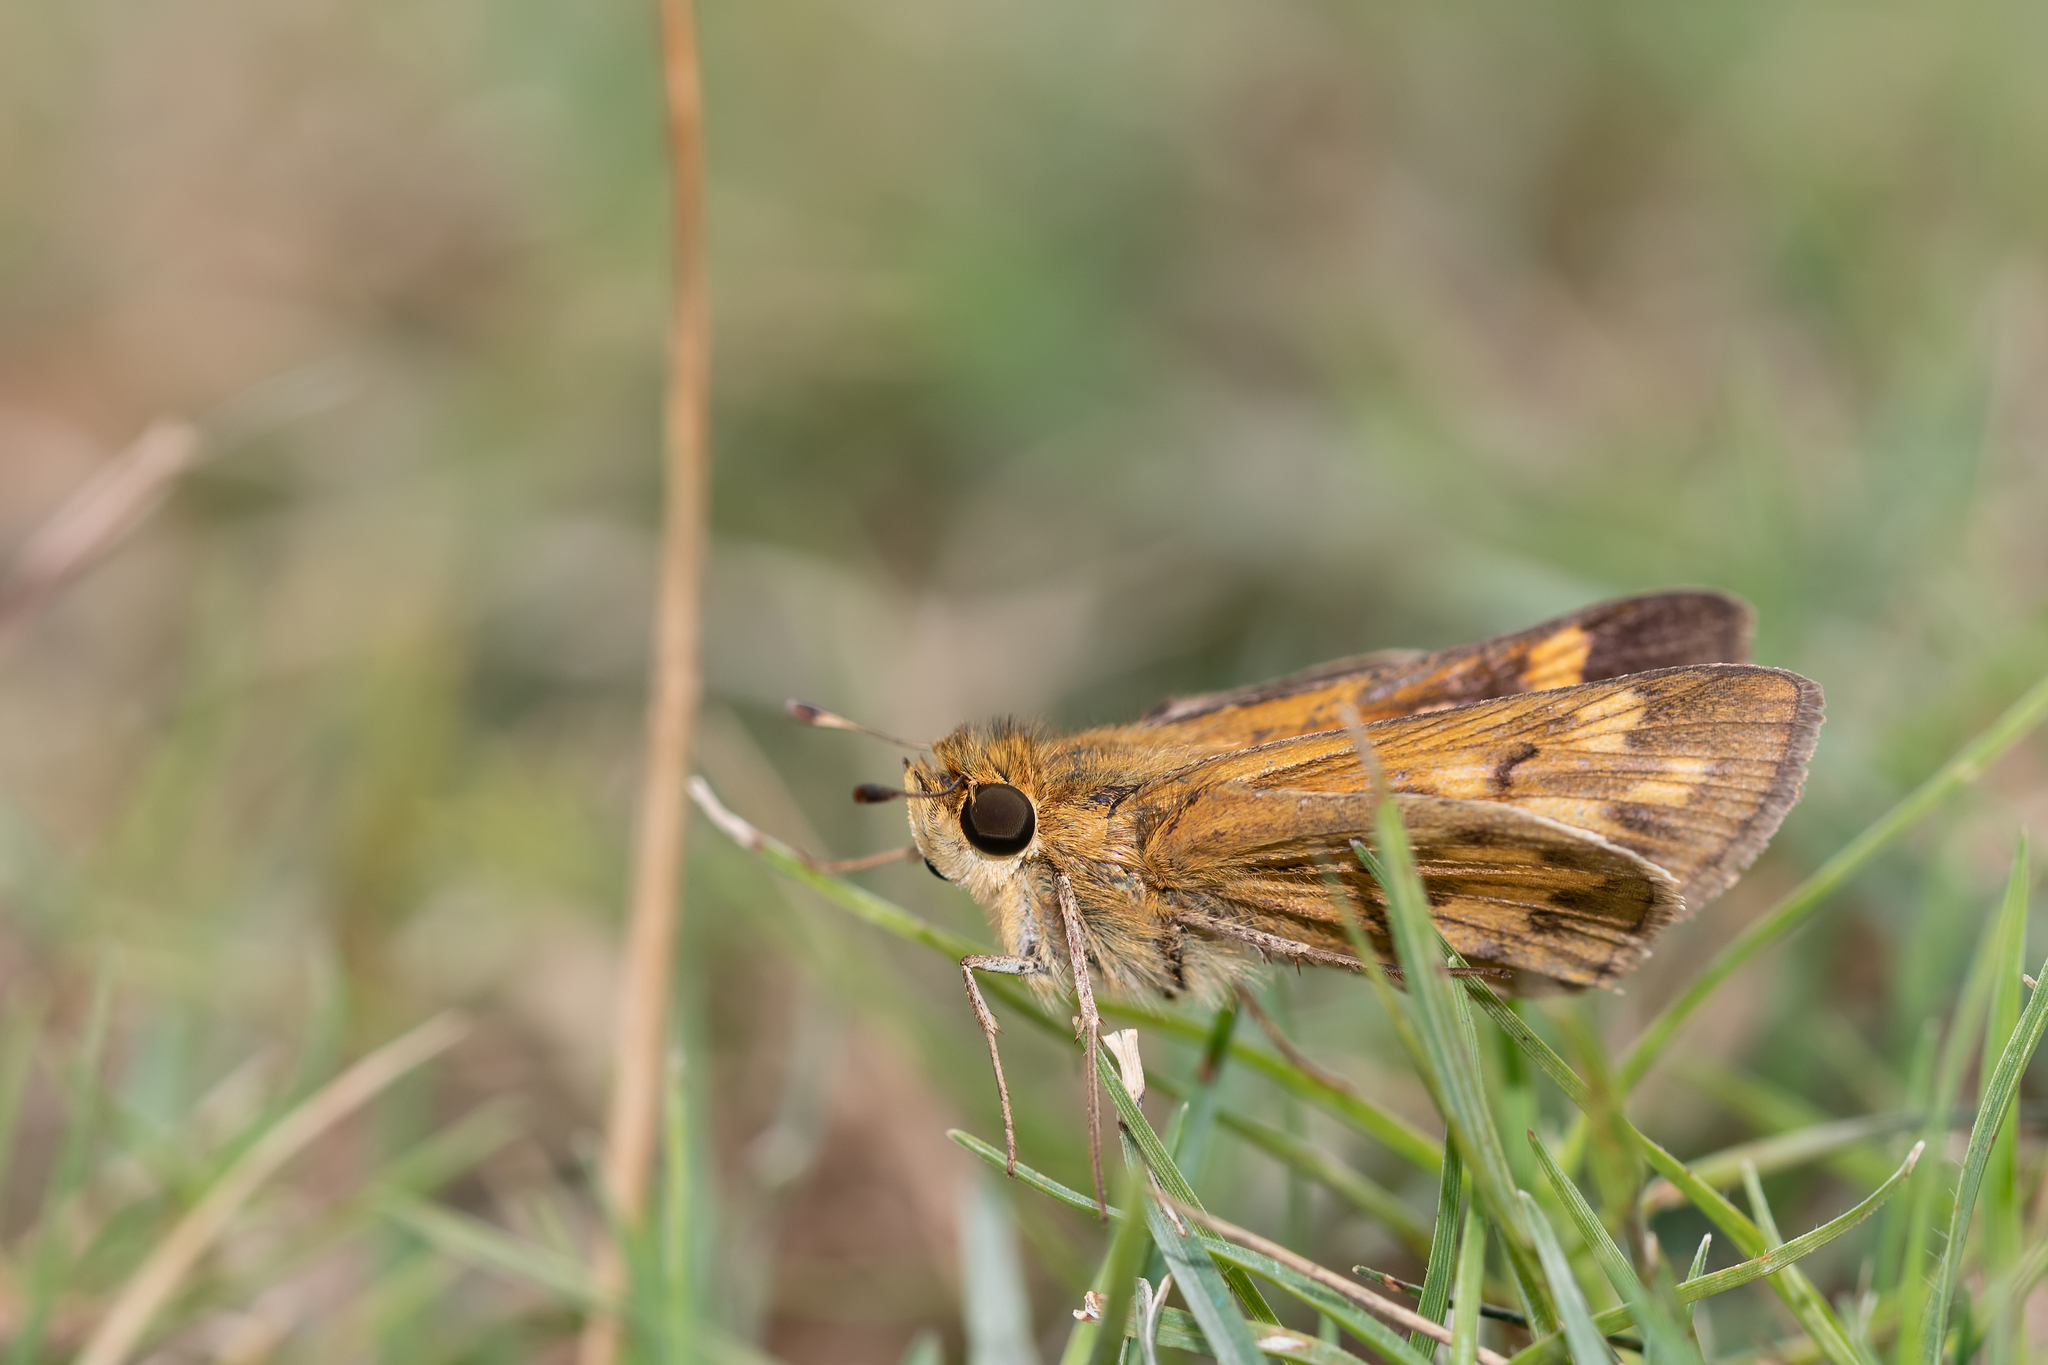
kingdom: Animalia
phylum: Arthropoda
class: Insecta
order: Lepidoptera
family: Hesperiidae
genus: Hylephila
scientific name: Hylephila phyleus
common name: Fiery skipper
